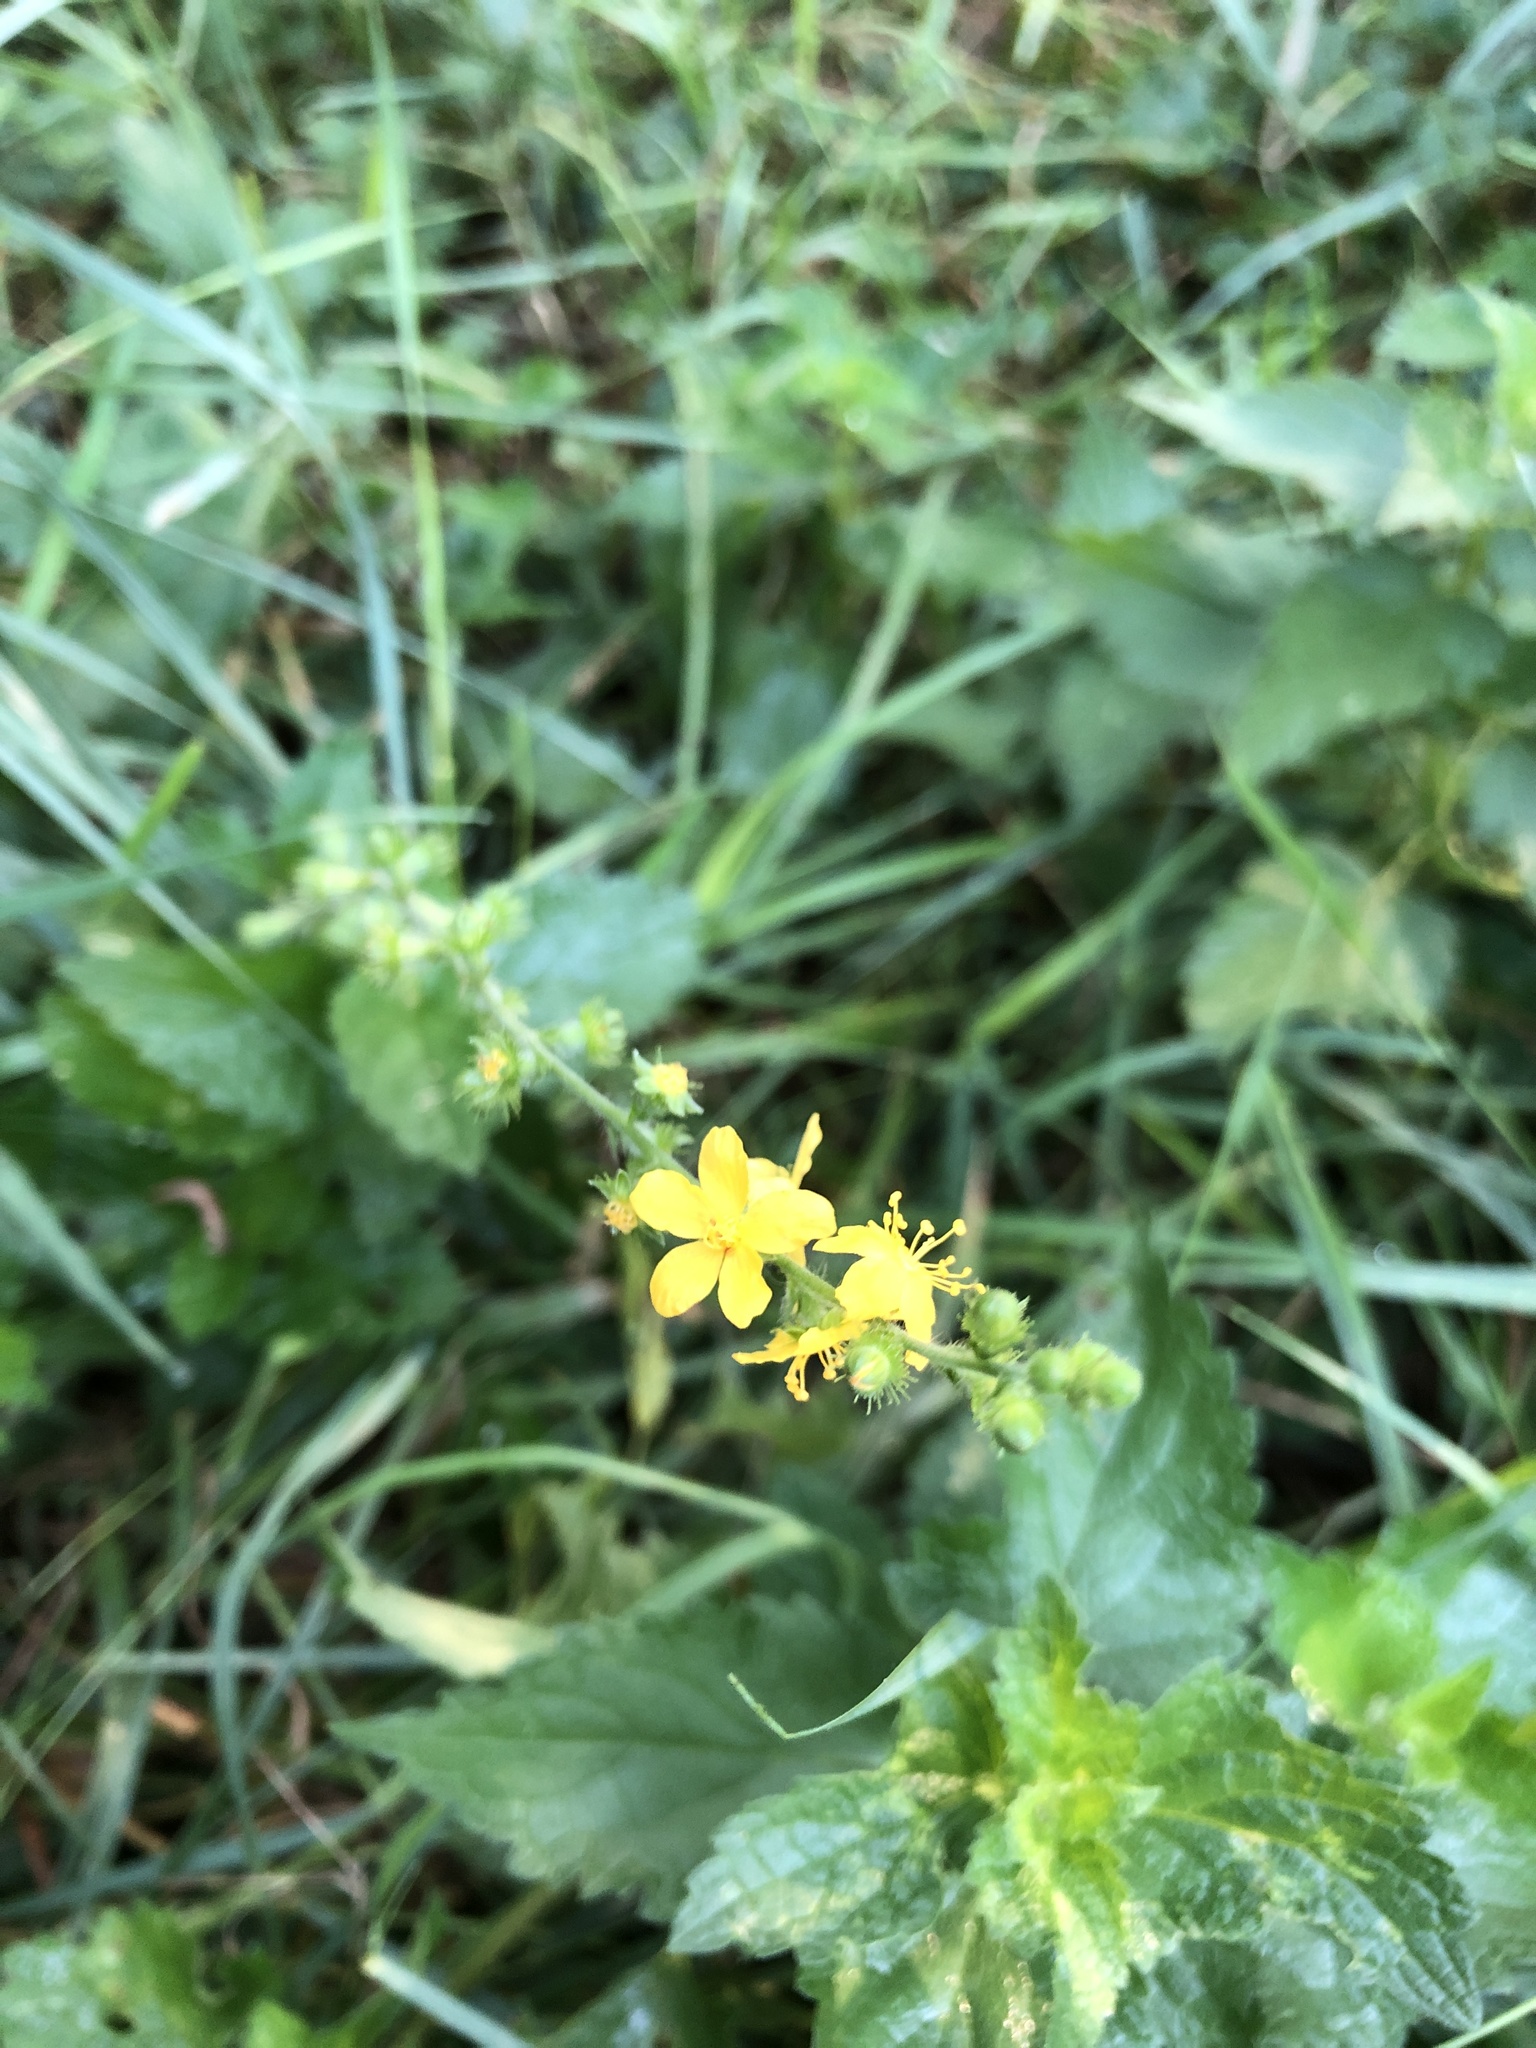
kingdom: Plantae
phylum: Tracheophyta
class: Magnoliopsida
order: Rosales
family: Rosaceae
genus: Agrimonia
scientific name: Agrimonia eupatoria
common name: Agrimony
